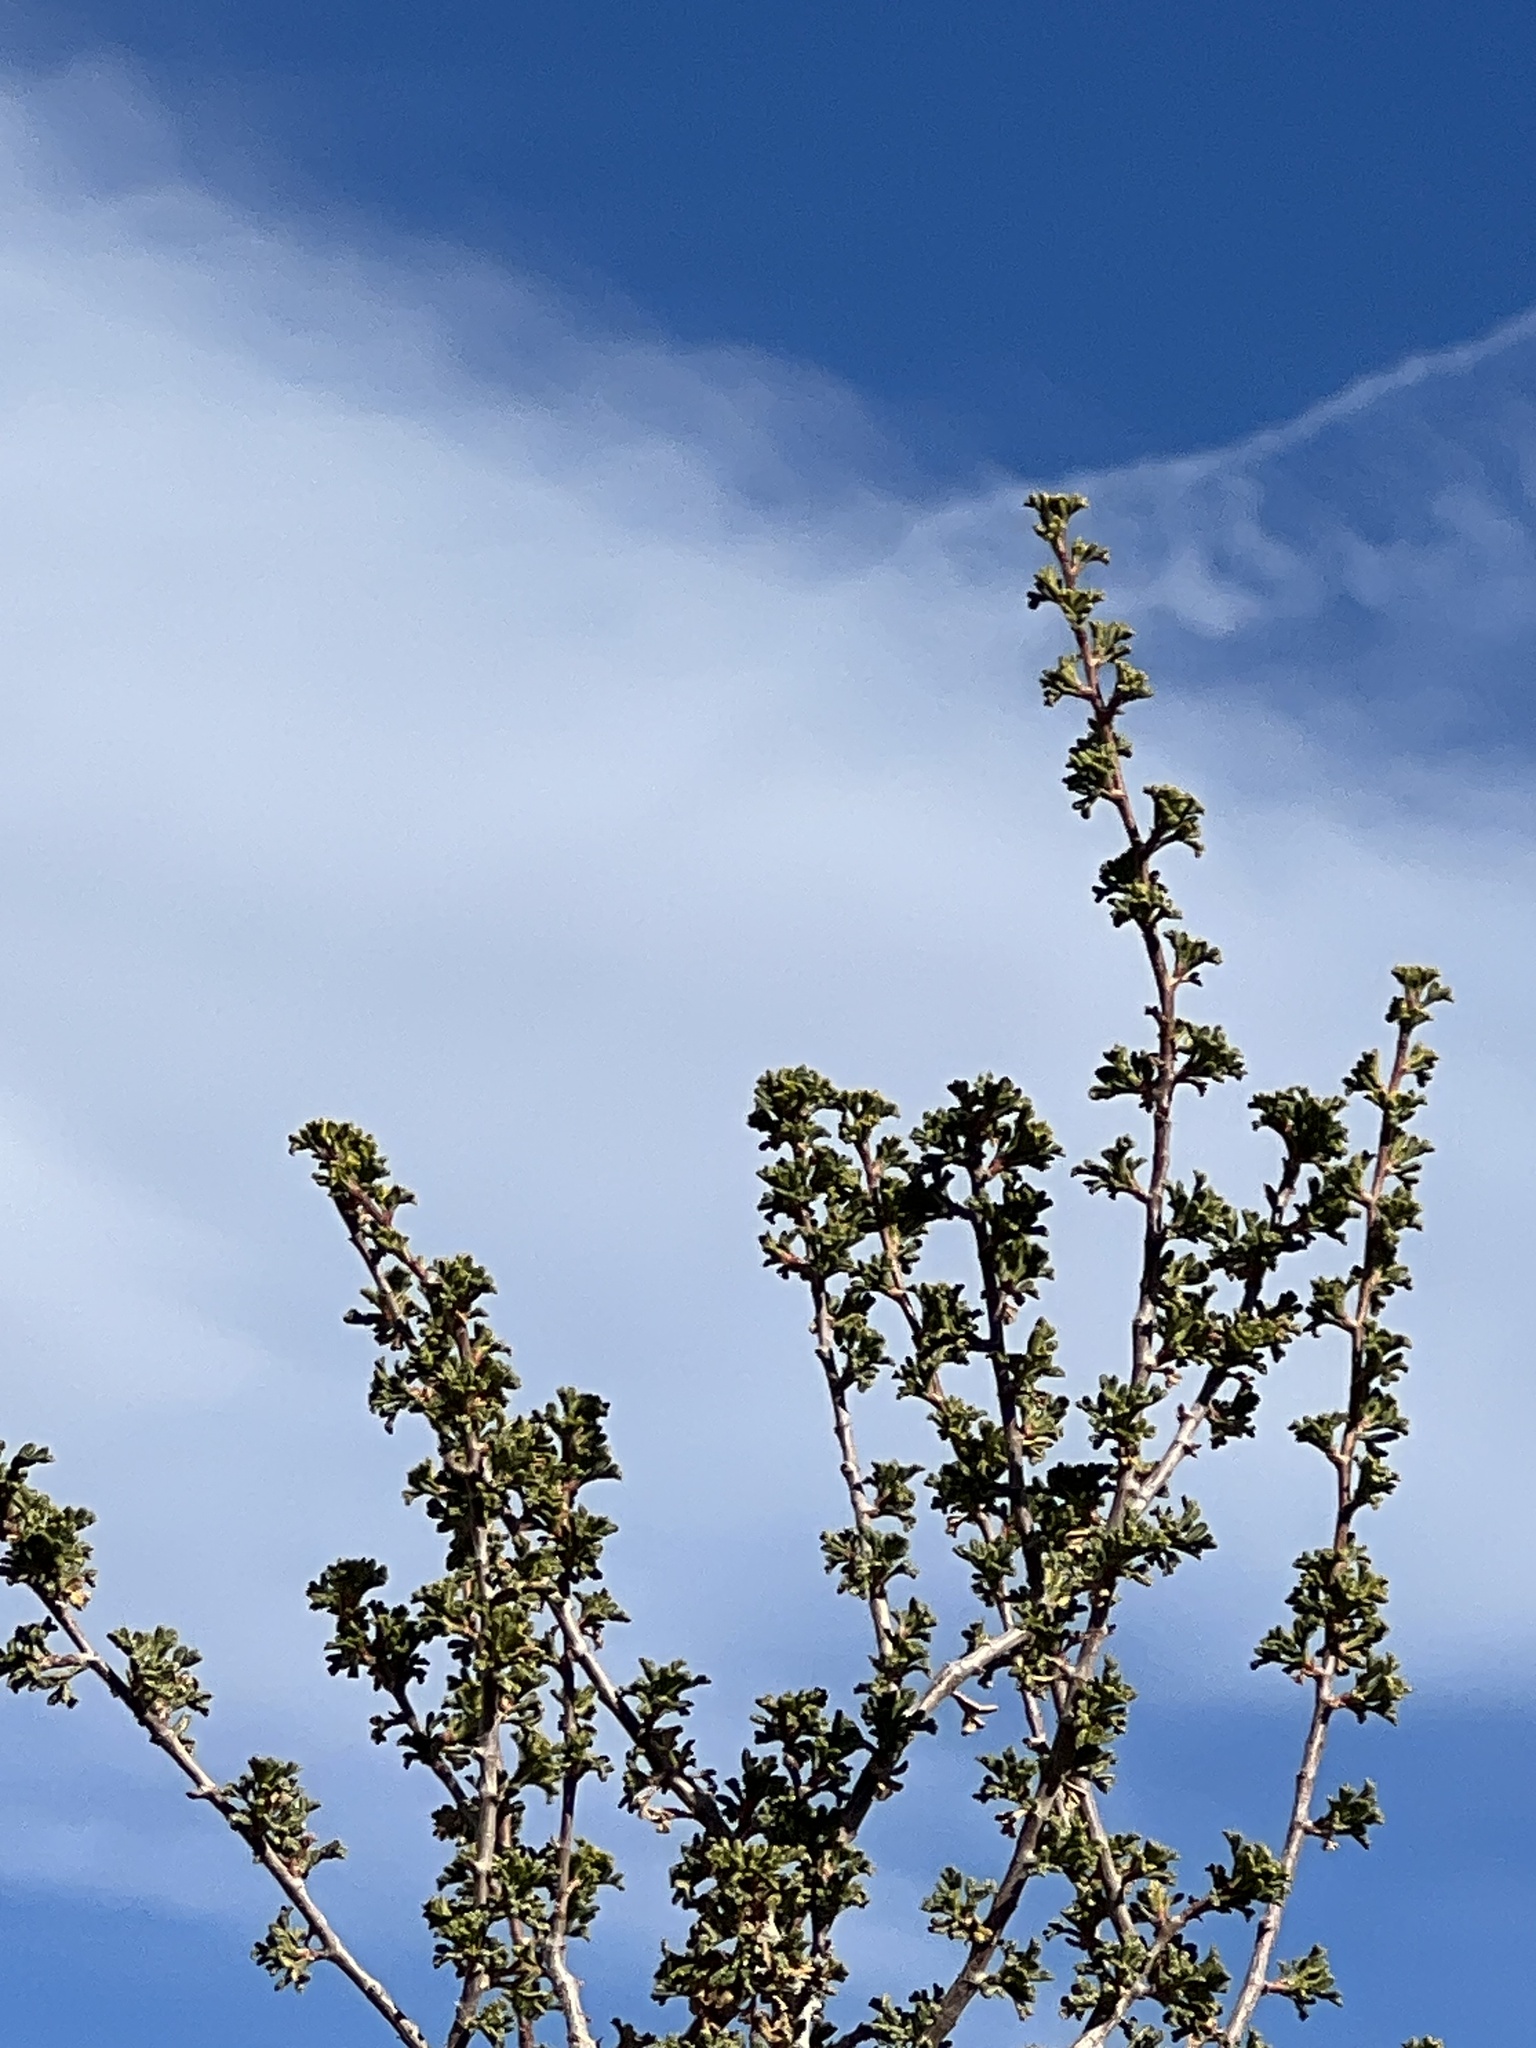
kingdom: Plantae
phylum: Tracheophyta
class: Magnoliopsida
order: Rosales
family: Rosaceae
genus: Purshia
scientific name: Purshia glandulosa
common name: Desert bitterbrush
